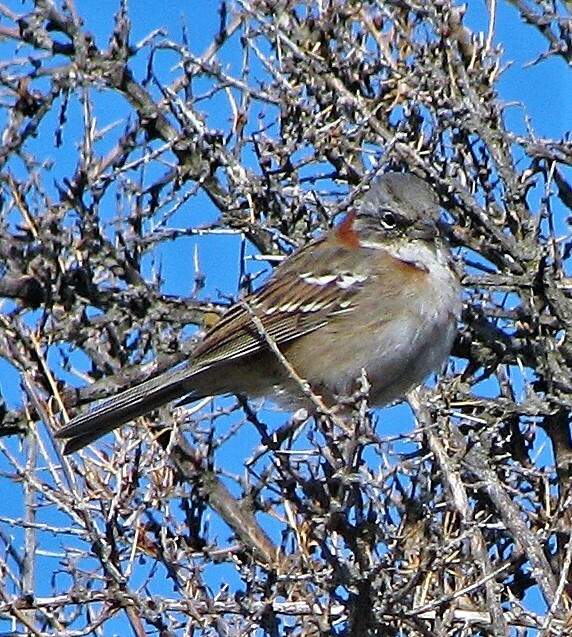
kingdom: Animalia
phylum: Chordata
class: Aves
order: Passeriformes
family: Passerellidae
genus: Zonotrichia
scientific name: Zonotrichia capensis
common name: Rufous-collared sparrow
